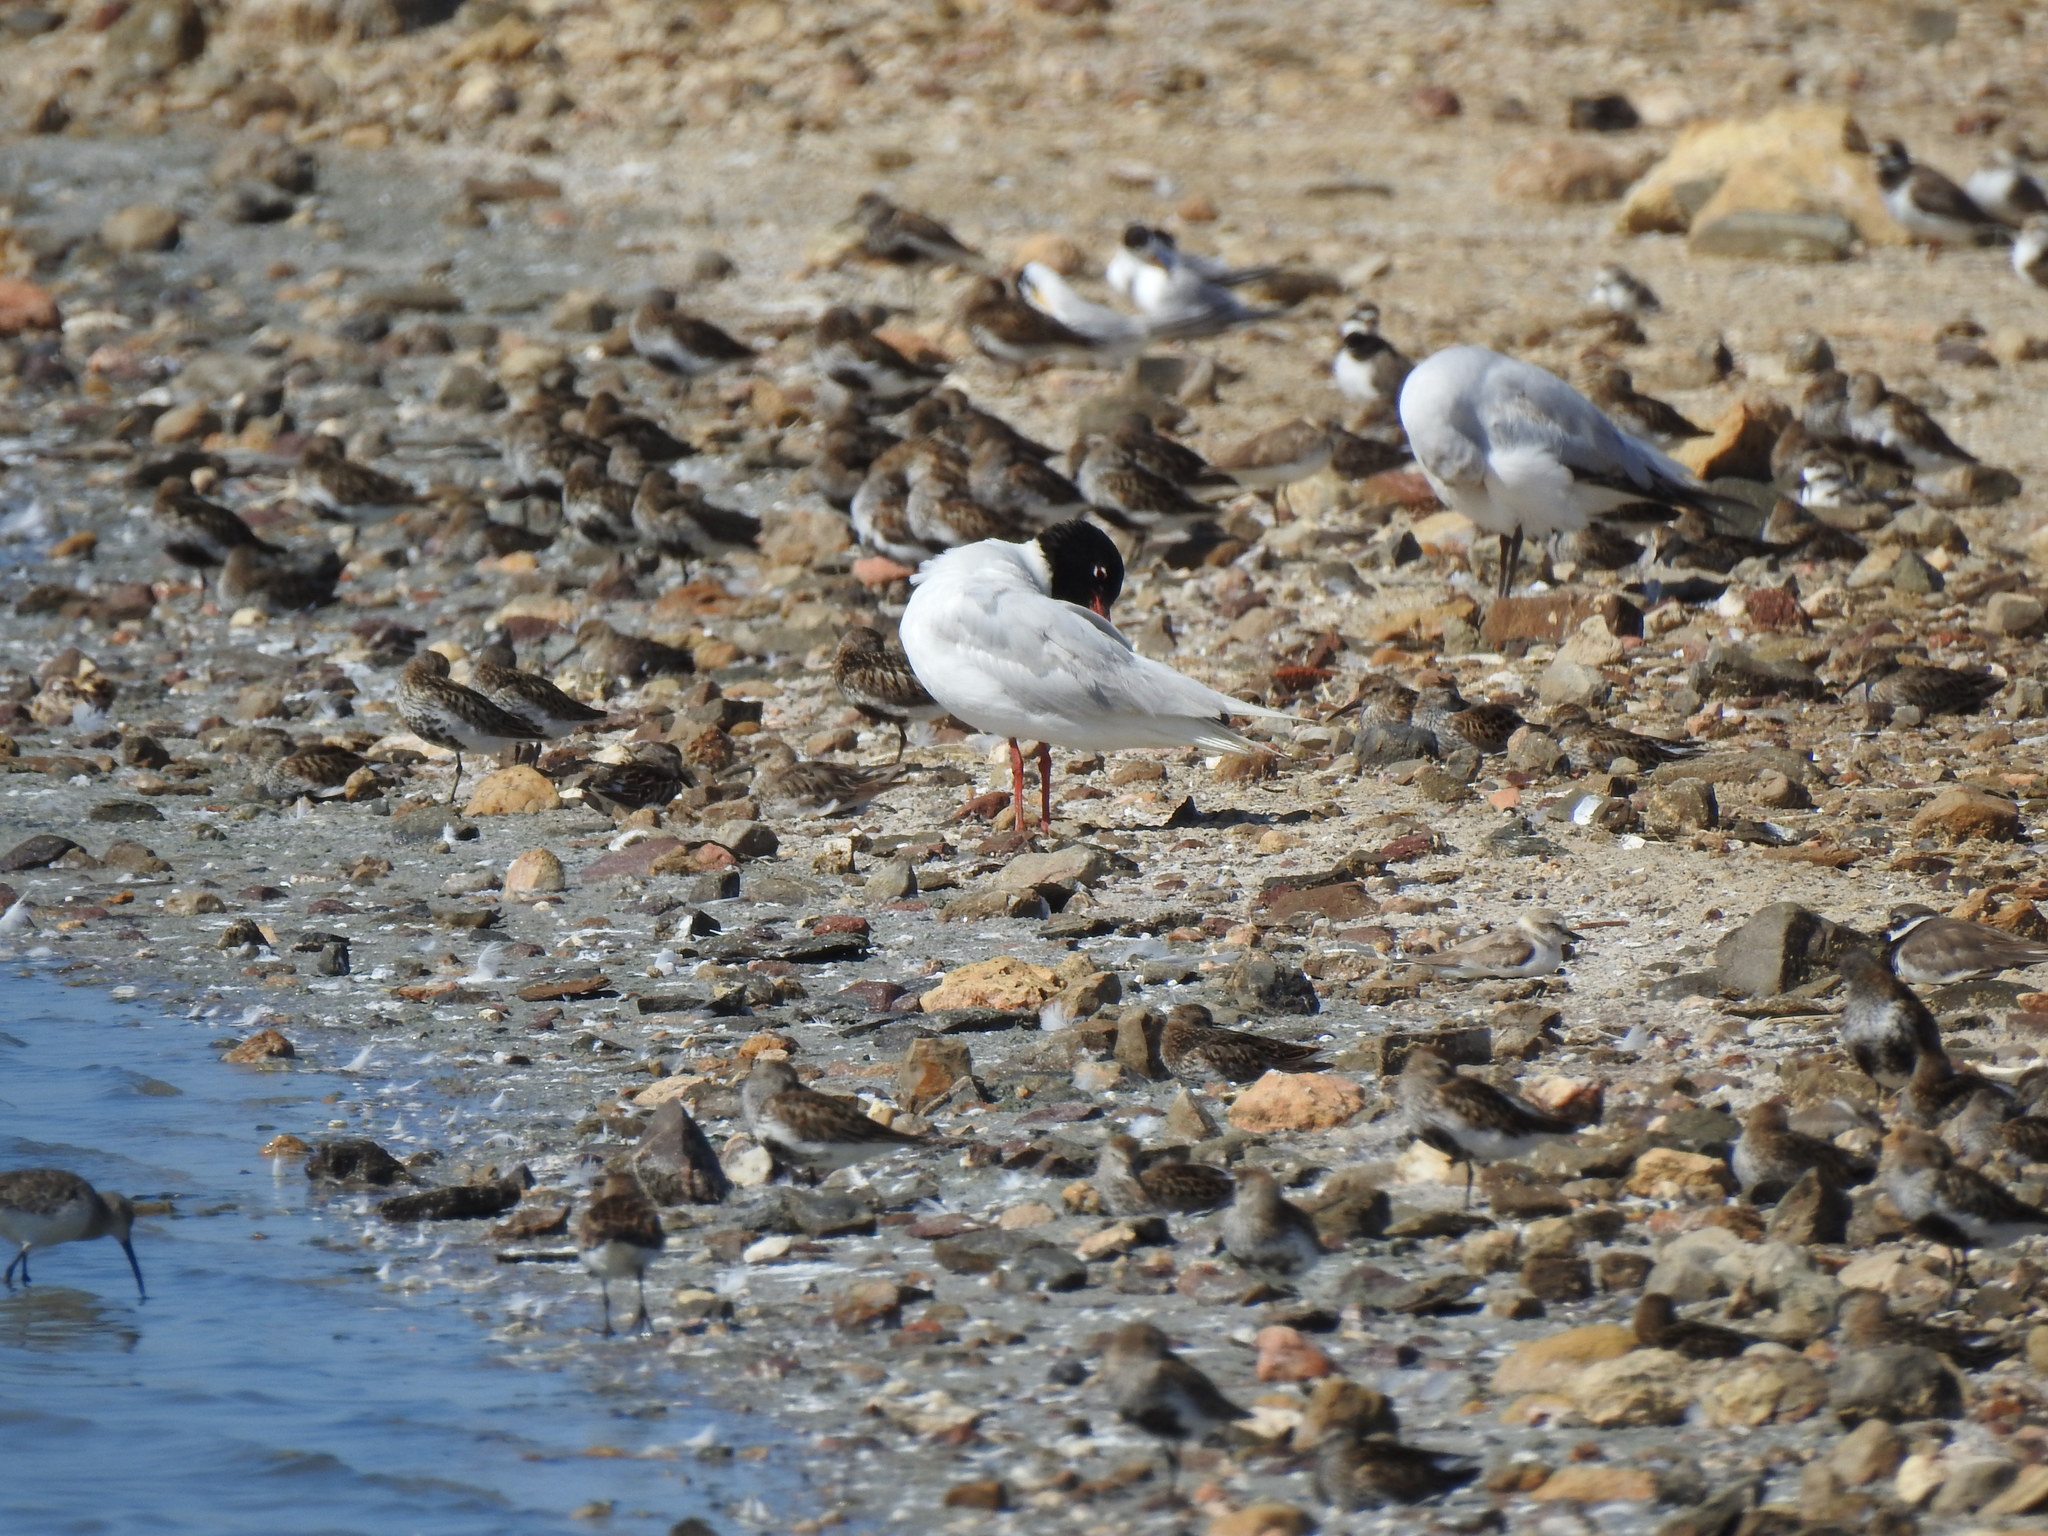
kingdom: Animalia
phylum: Chordata
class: Aves
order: Charadriiformes
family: Laridae
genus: Ichthyaetus
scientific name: Ichthyaetus melanocephalus
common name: Mediterranean gull
